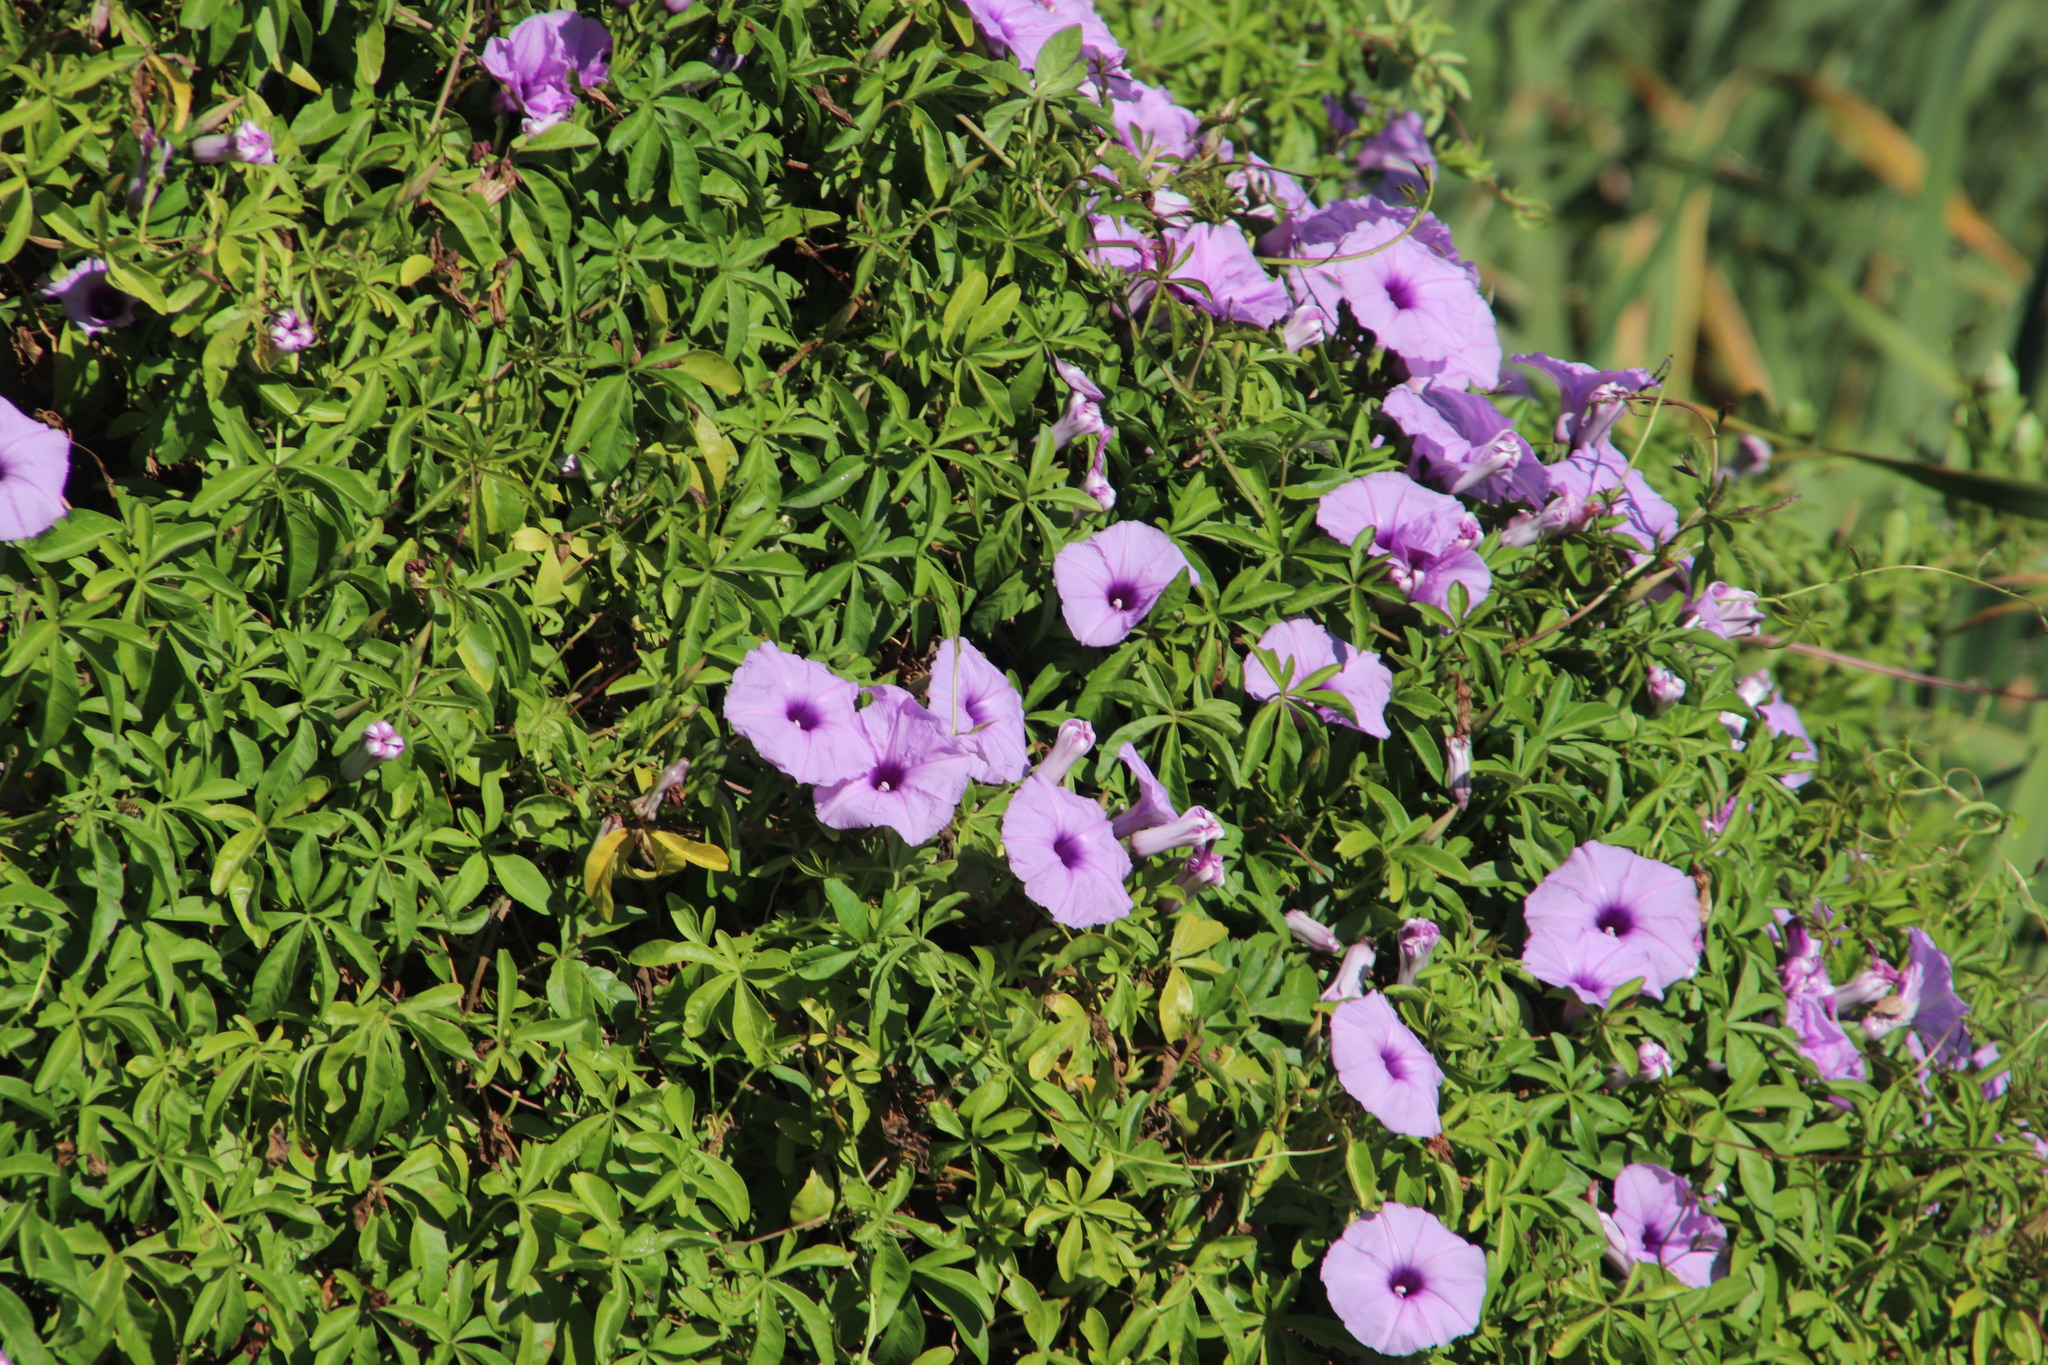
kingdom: Plantae
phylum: Tracheophyta
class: Magnoliopsida
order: Solanales
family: Convolvulaceae
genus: Ipomoea
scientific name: Ipomoea cairica
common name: Mile a minute vine
